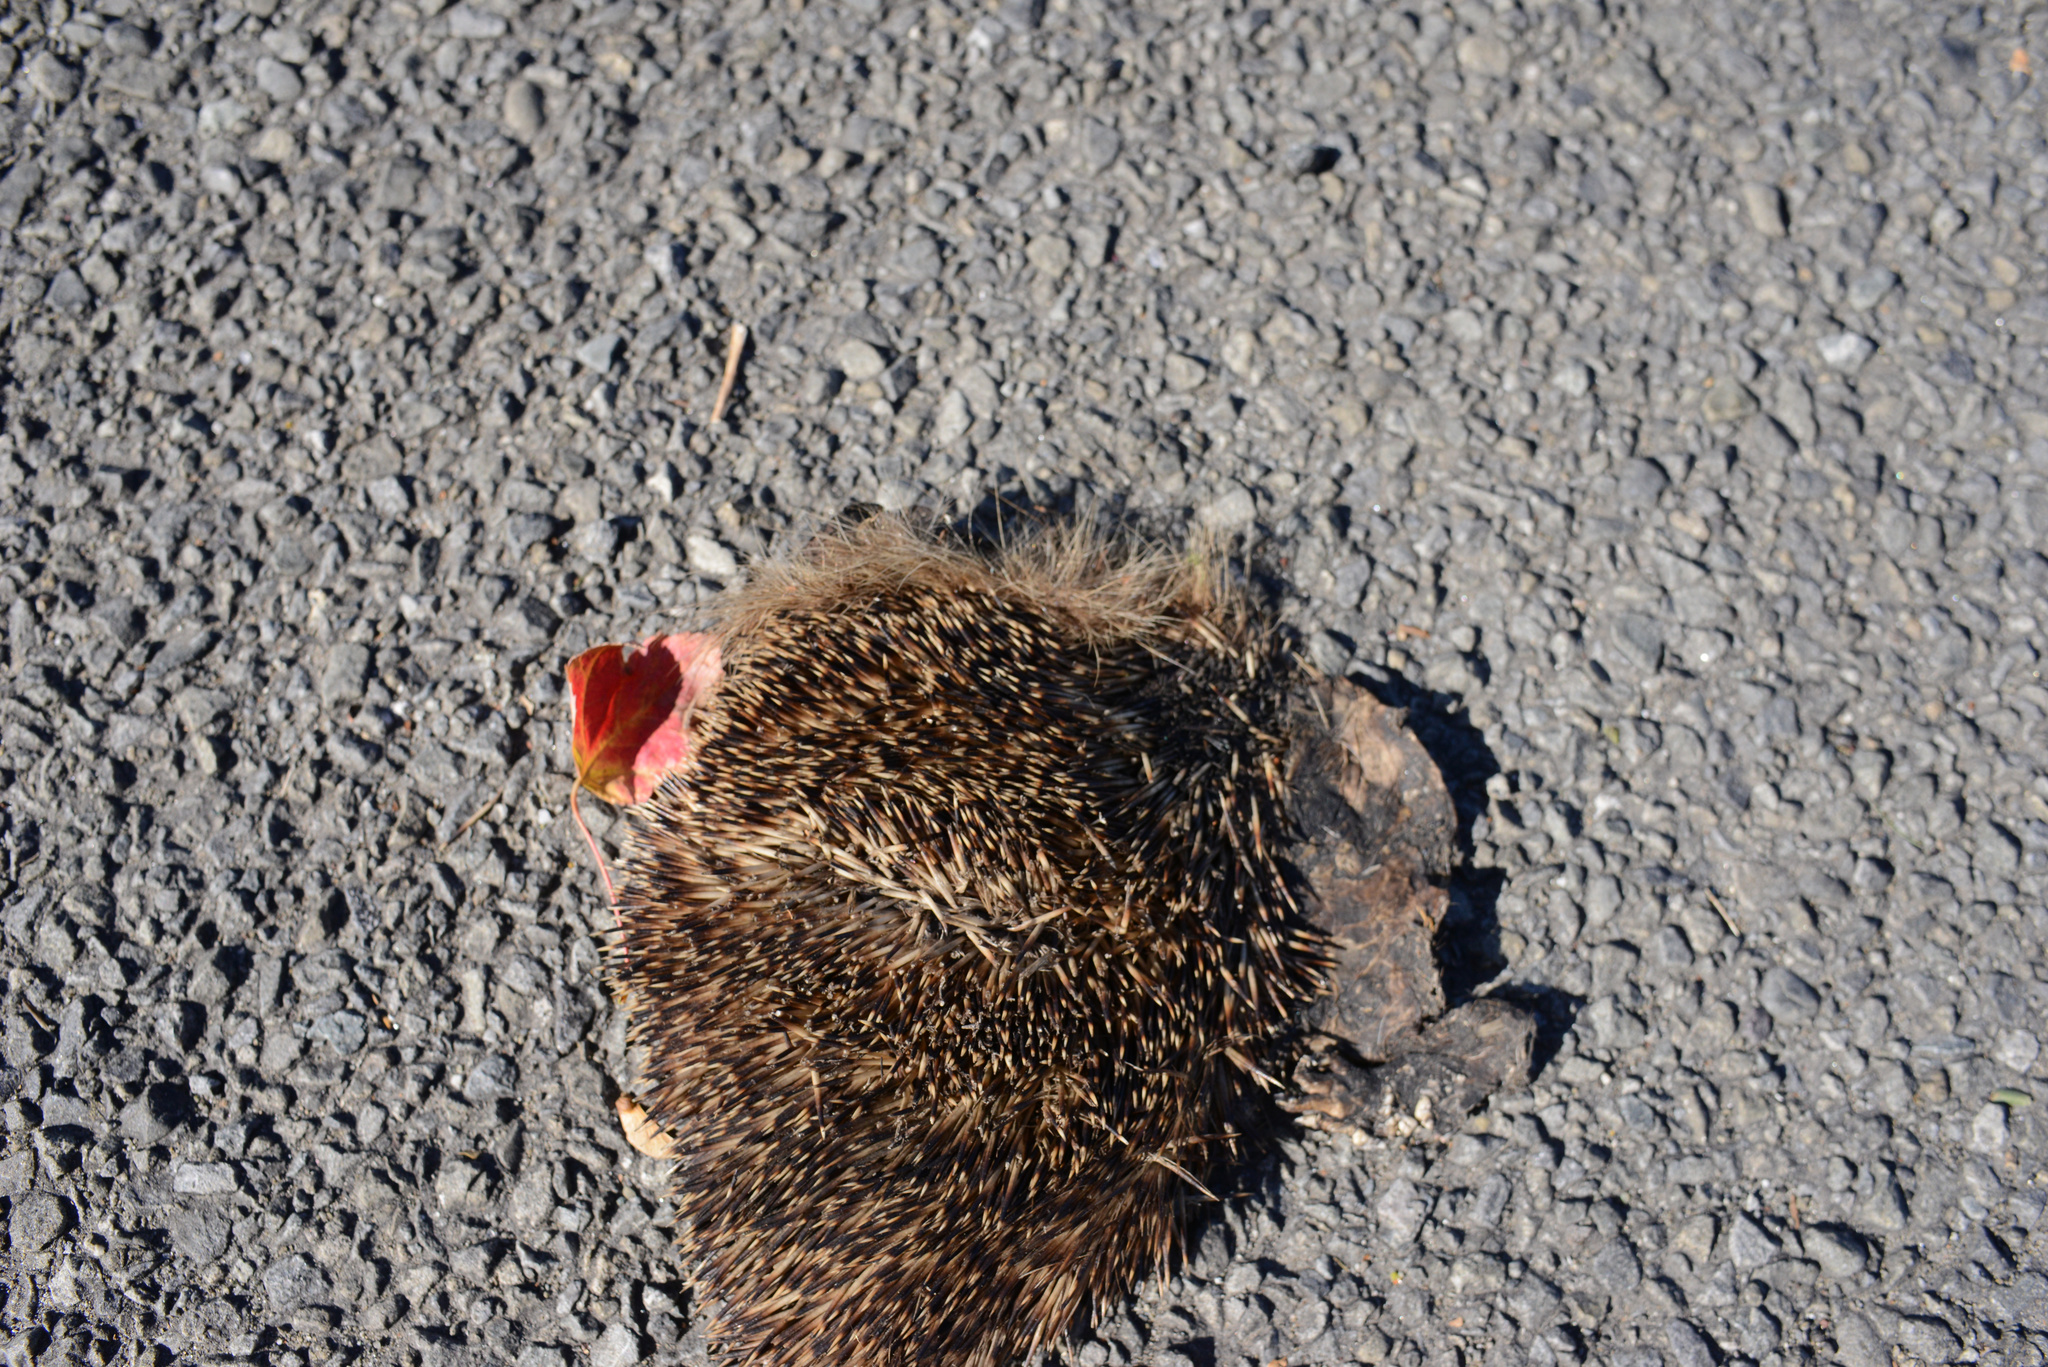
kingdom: Animalia
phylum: Chordata
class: Mammalia
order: Erinaceomorpha
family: Erinaceidae
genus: Erinaceus
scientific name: Erinaceus europaeus
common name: West european hedgehog
